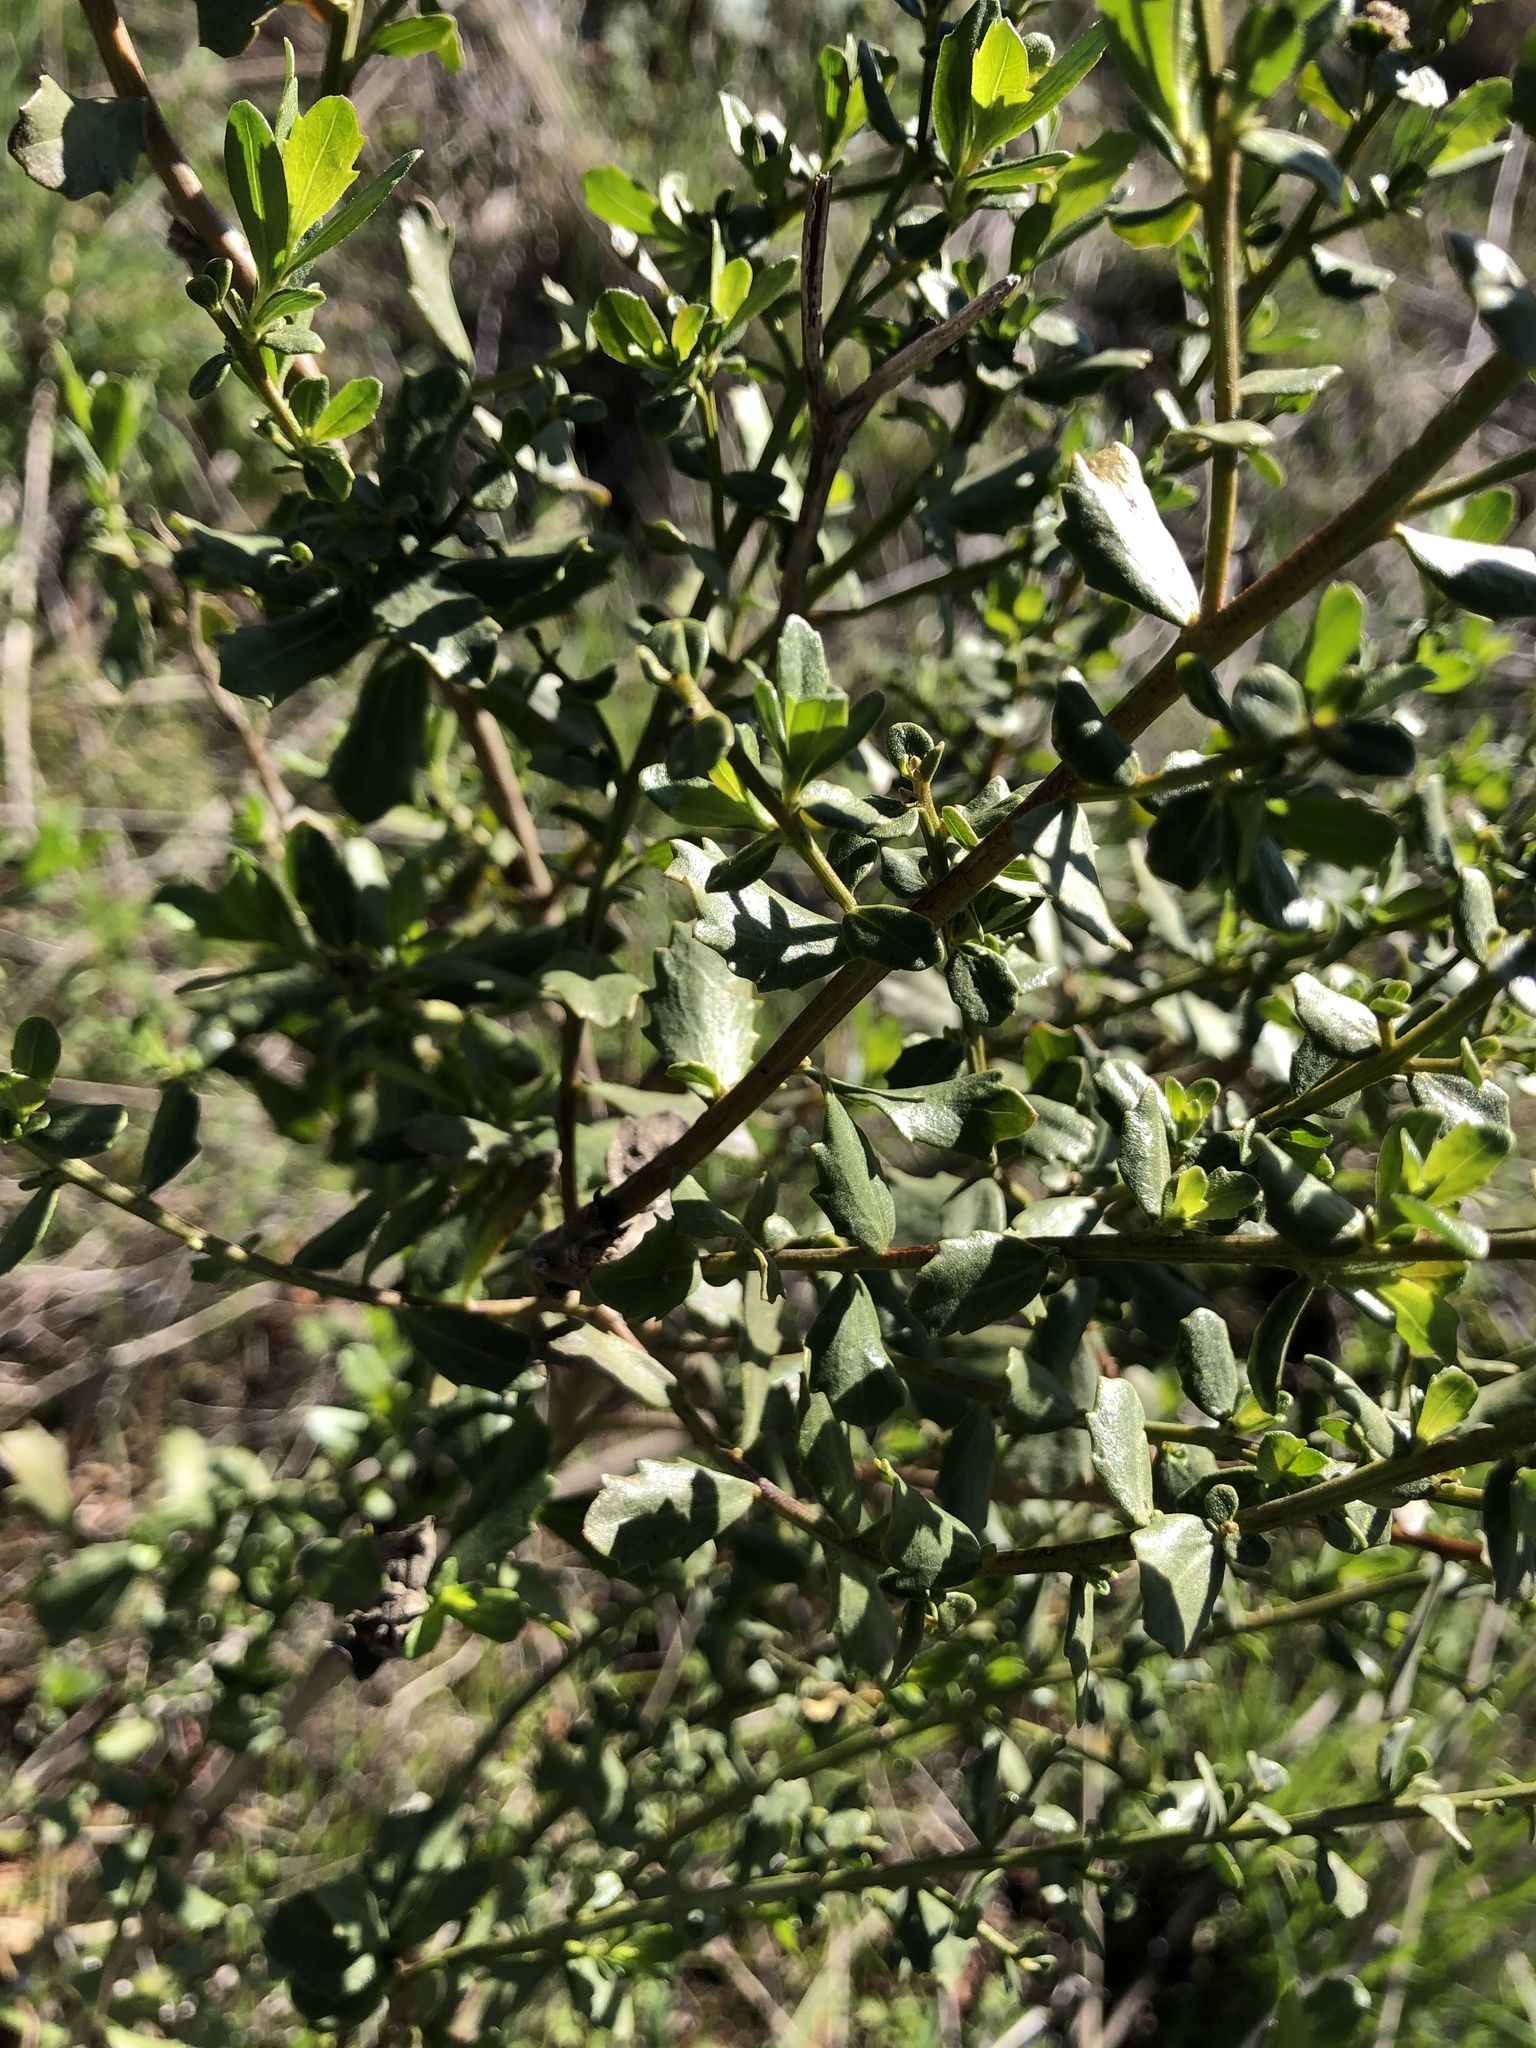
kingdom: Plantae
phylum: Tracheophyta
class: Magnoliopsida
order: Asterales
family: Asteraceae
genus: Baccharis
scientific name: Baccharis pilularis
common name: Coyotebrush
